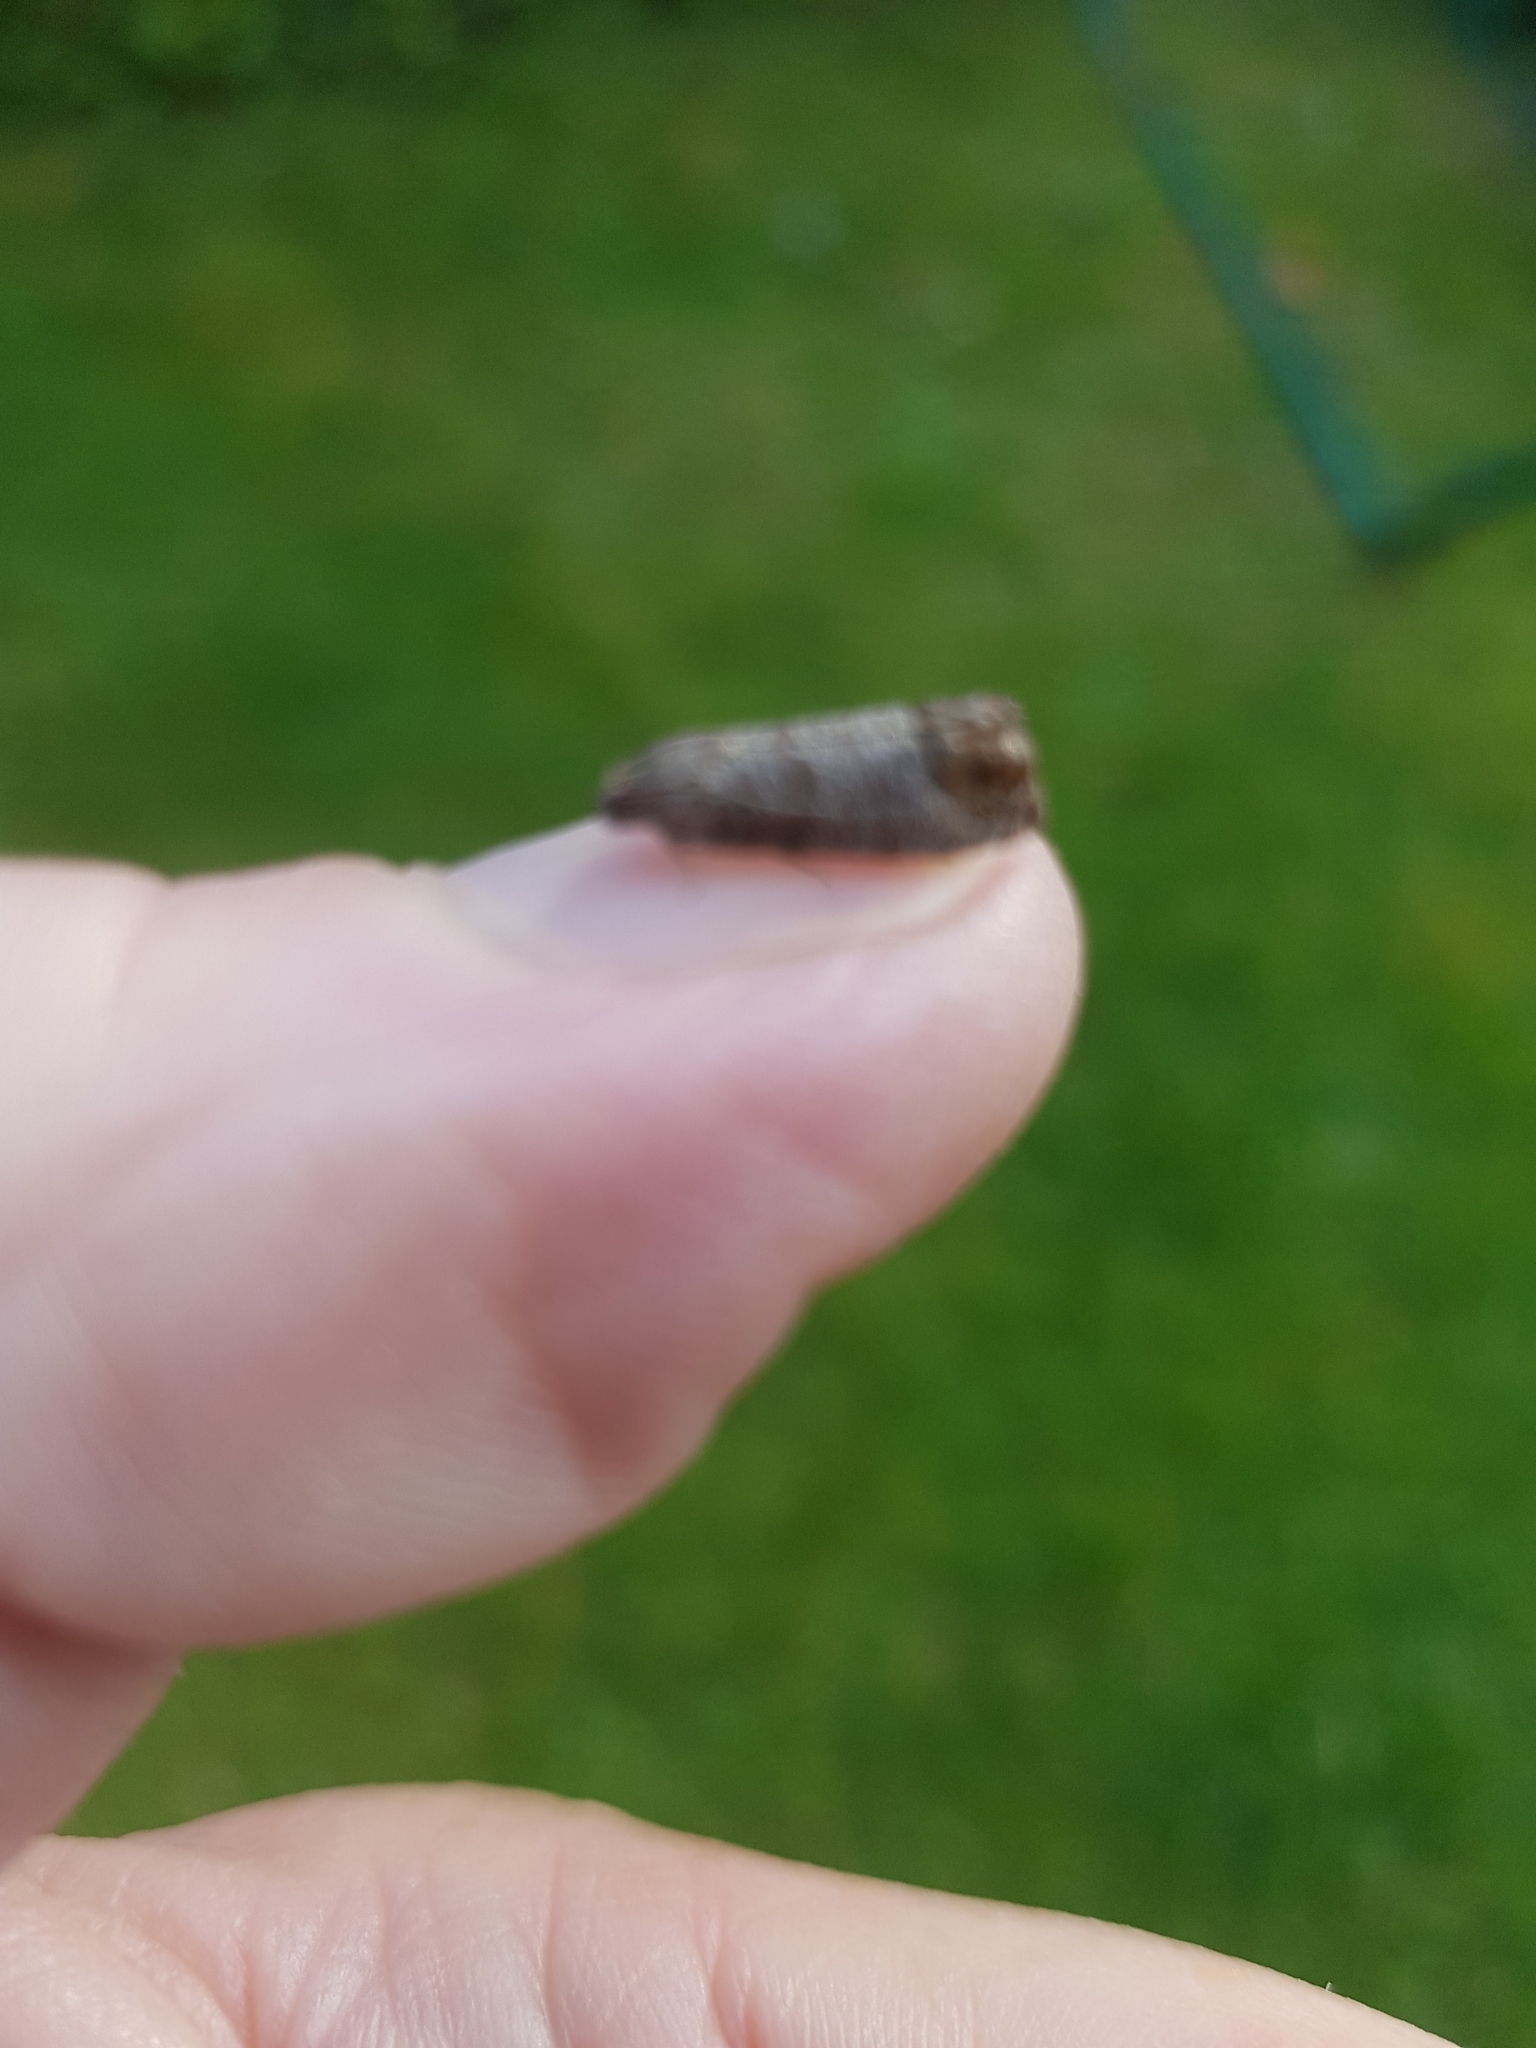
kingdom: Animalia
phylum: Arthropoda
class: Insecta
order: Lepidoptera
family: Tortricidae
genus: Cydia
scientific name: Cydia pomonella
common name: Codling moth
